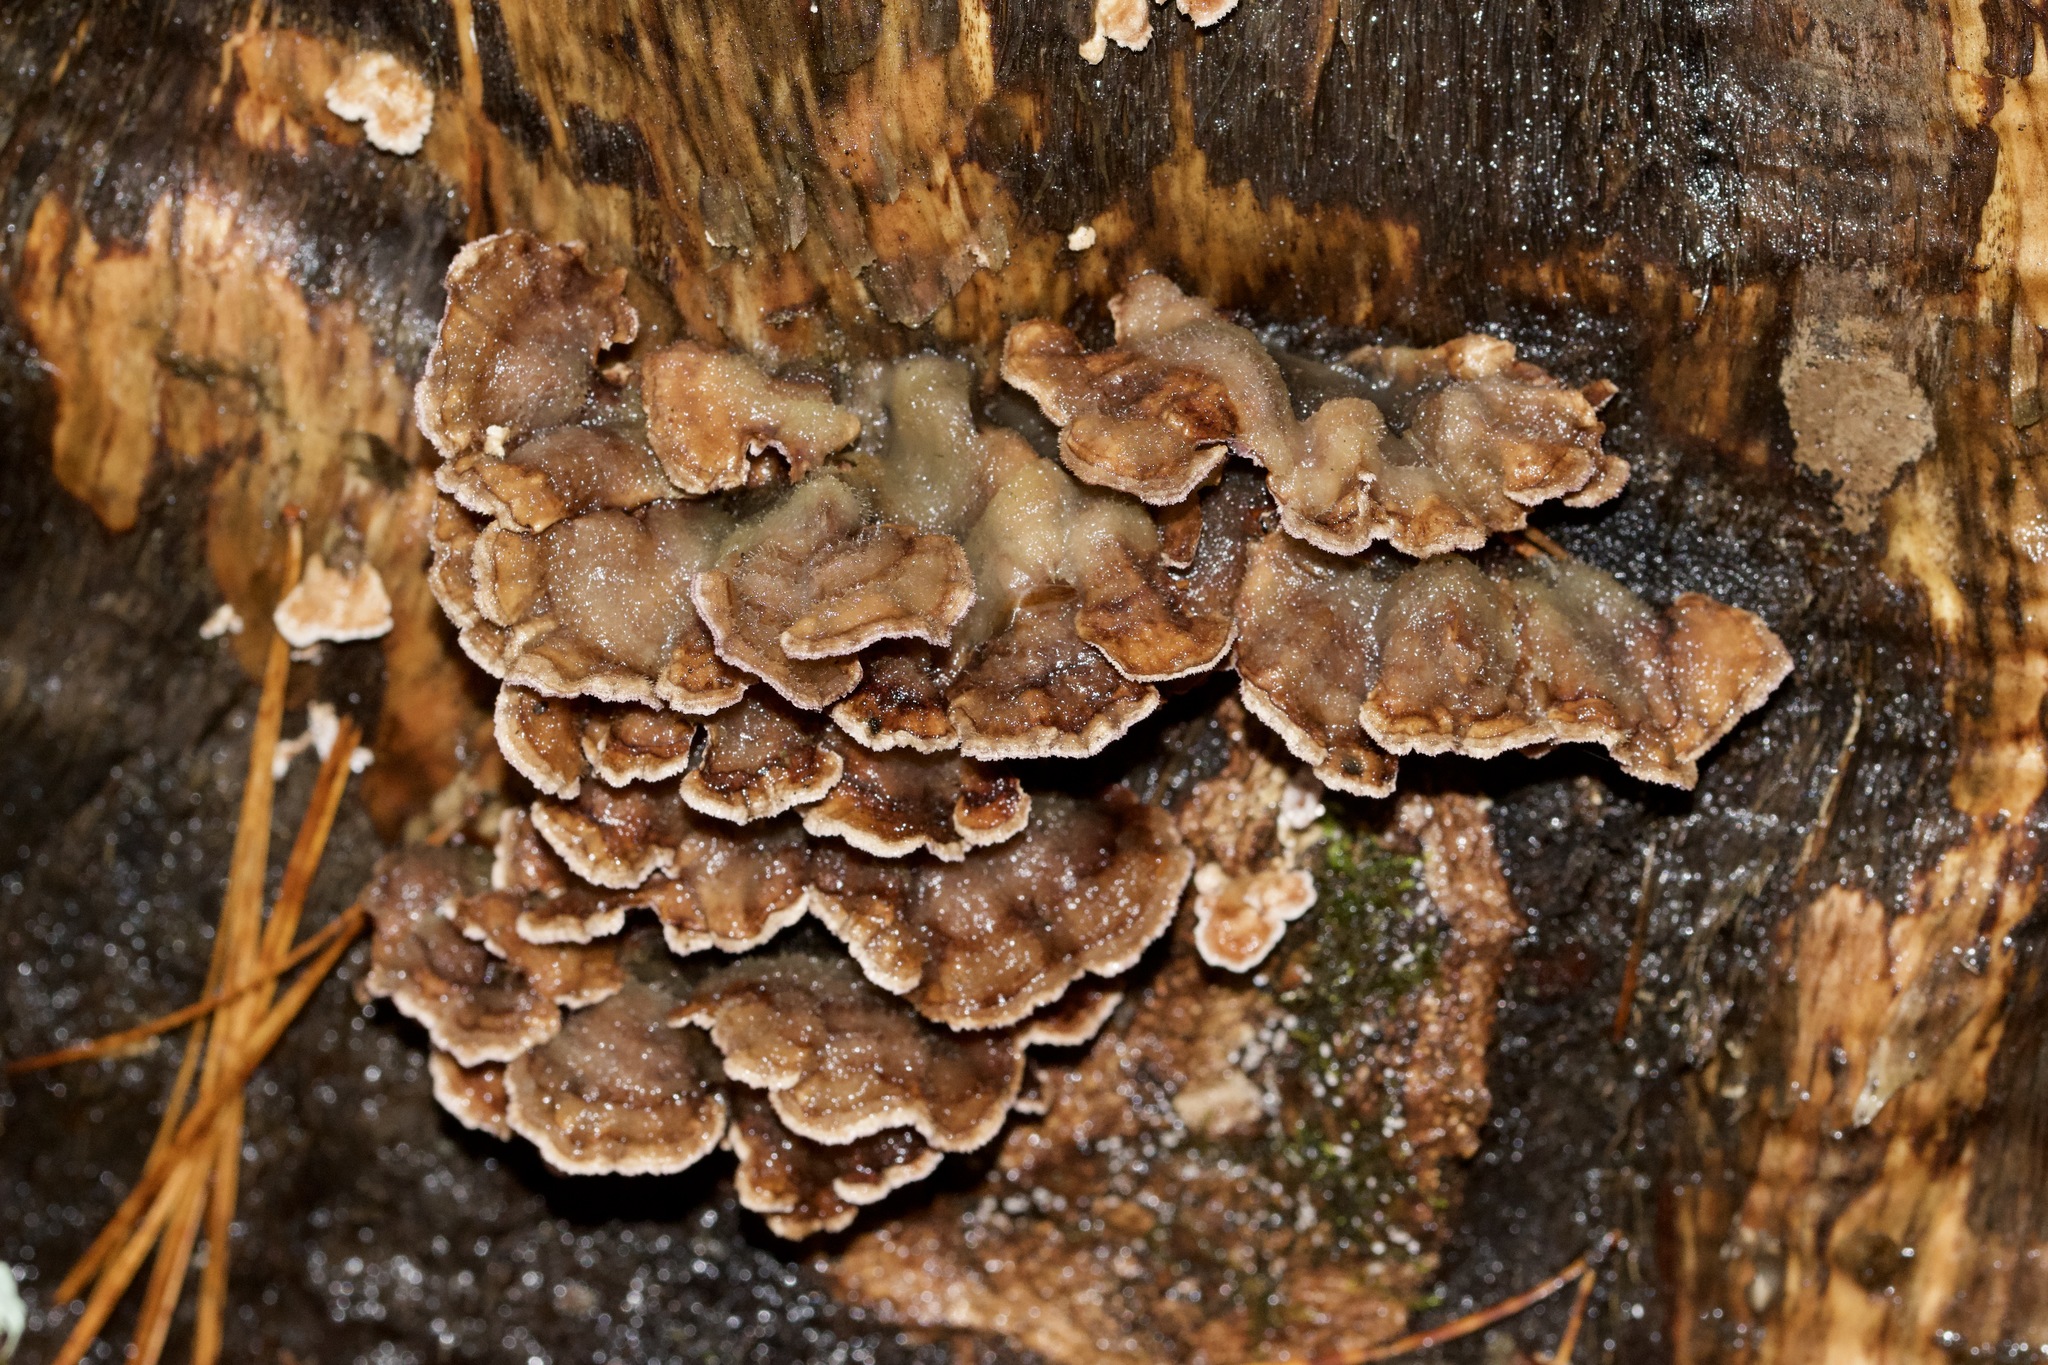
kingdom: Fungi
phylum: Basidiomycota
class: Agaricomycetes
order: Polyporales
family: Polyporaceae
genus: Trametes
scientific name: Trametes versicolor
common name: Turkeytail
